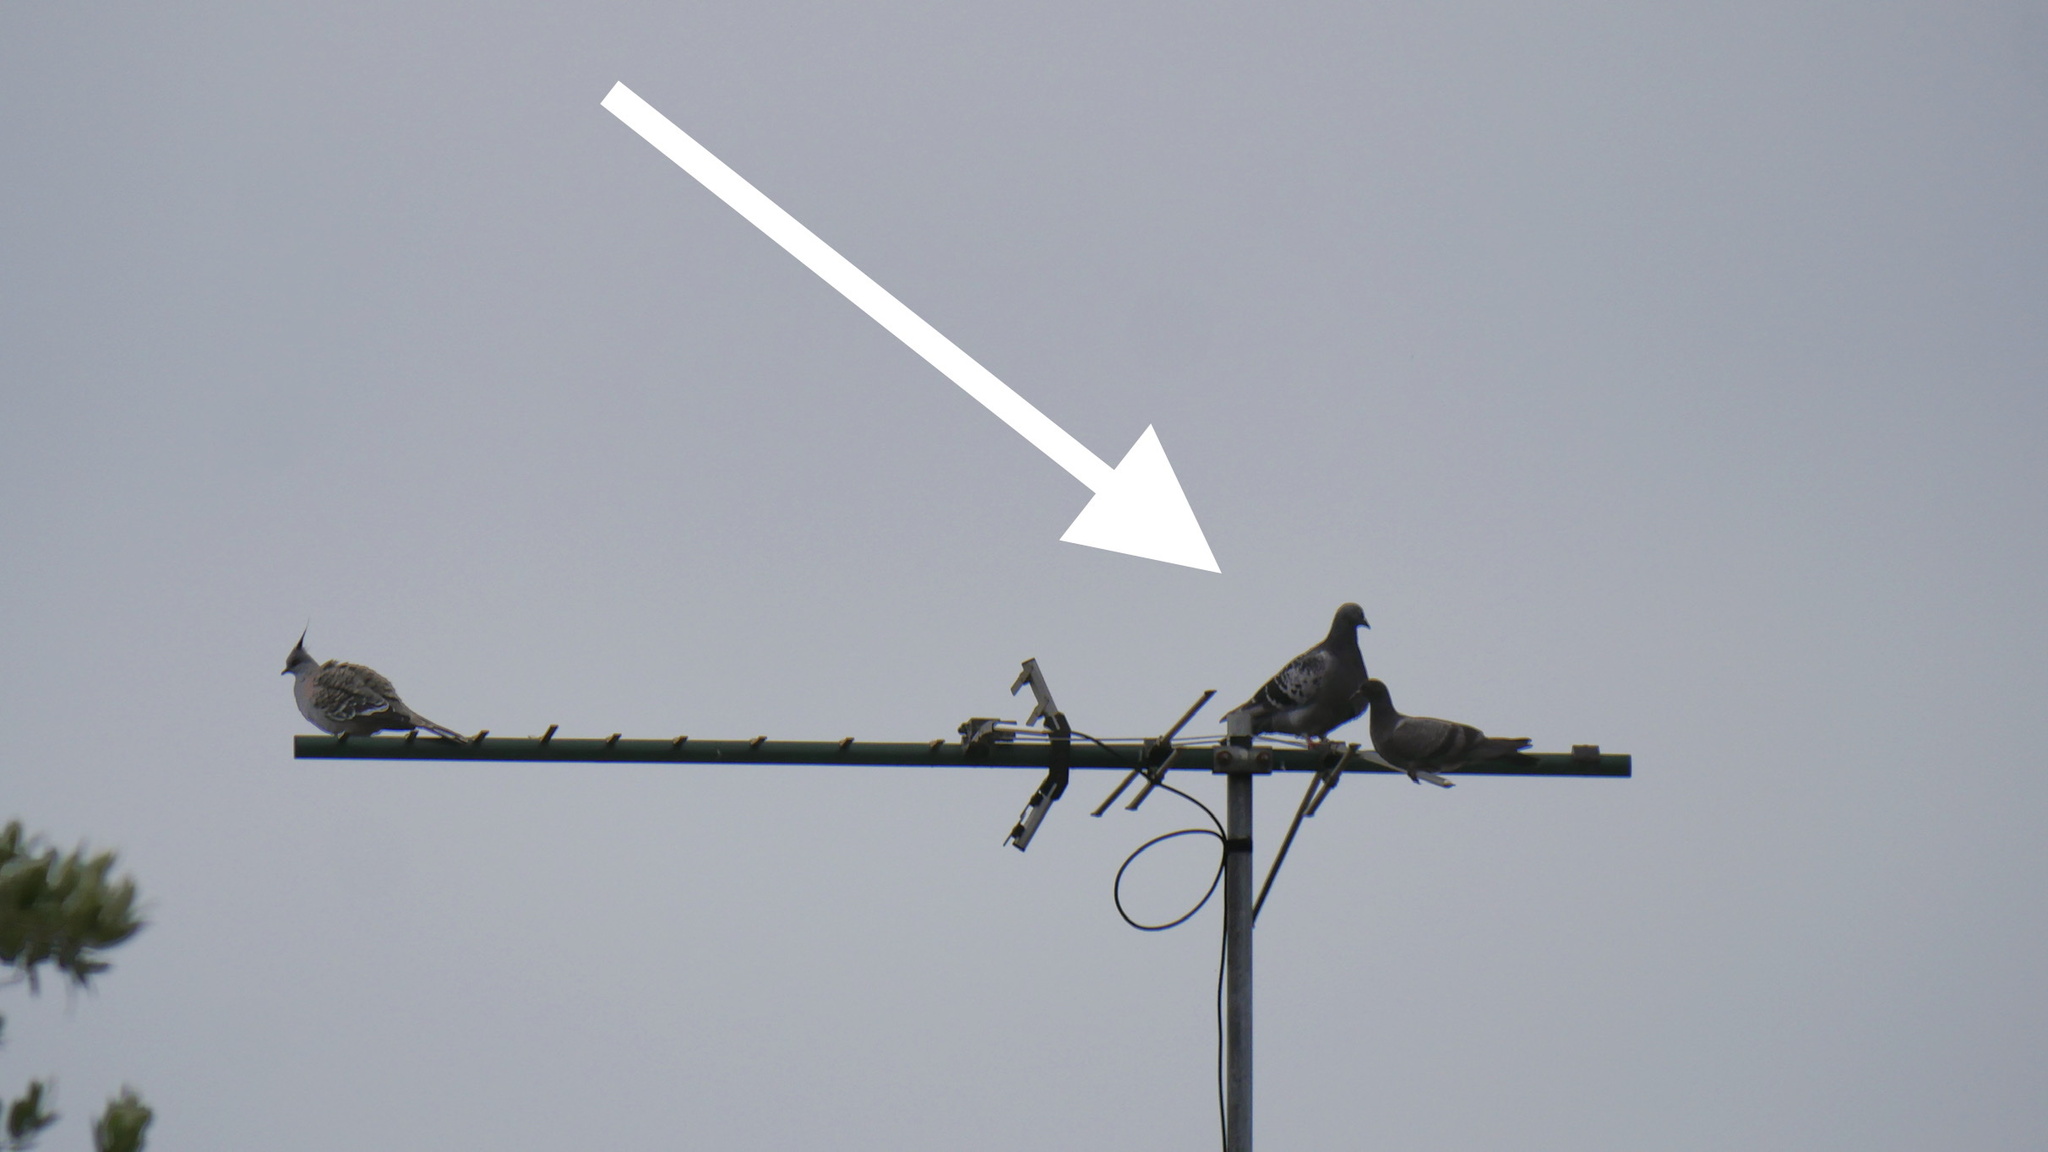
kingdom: Animalia
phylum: Chordata
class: Aves
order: Columbiformes
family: Columbidae
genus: Columba
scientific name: Columba livia
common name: Rock pigeon
